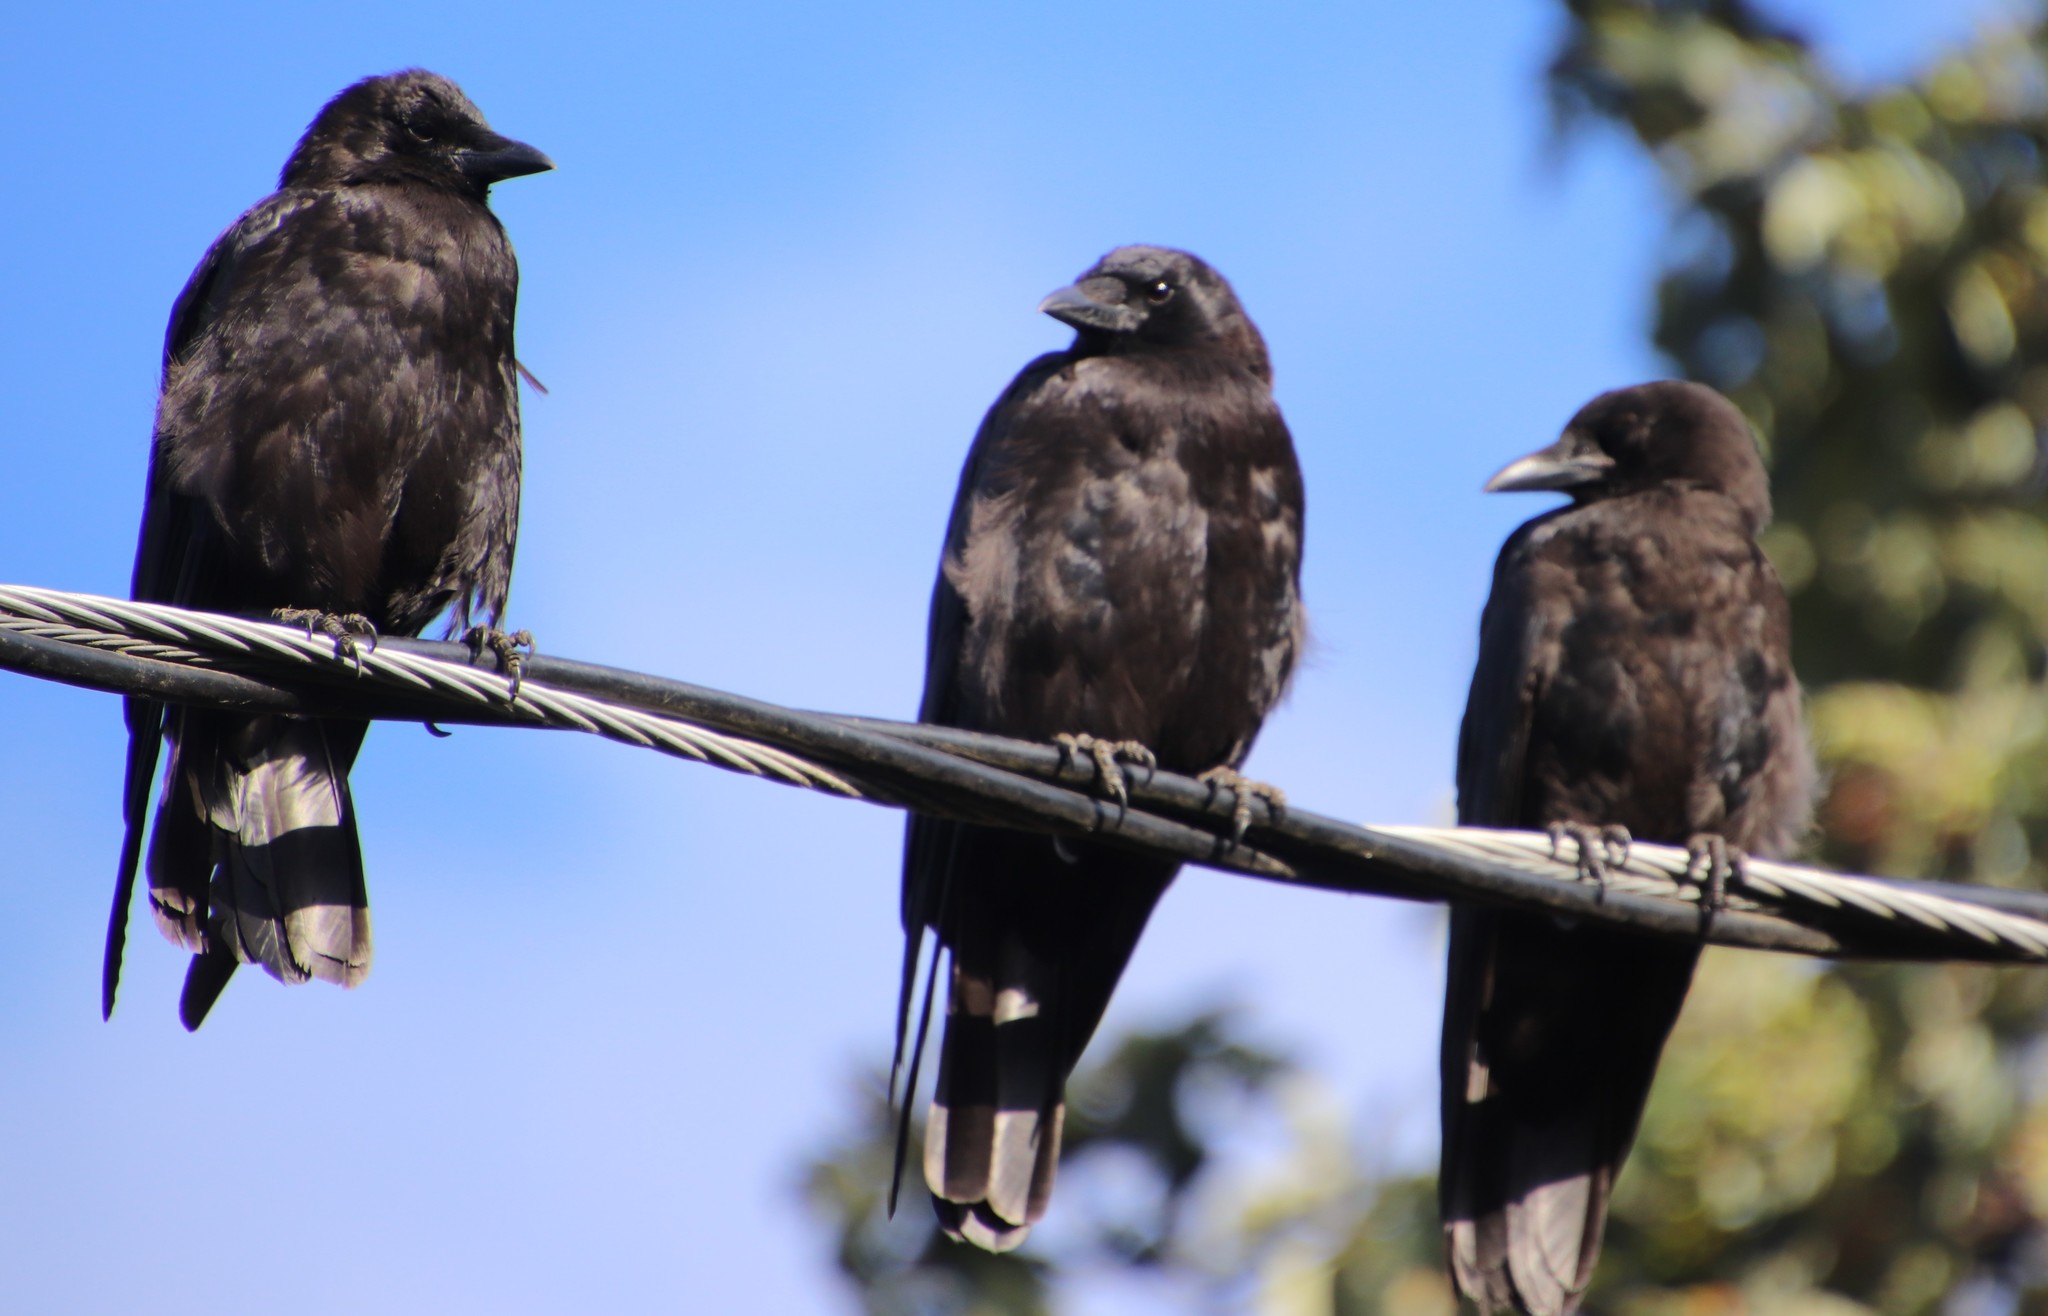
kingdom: Animalia
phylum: Chordata
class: Aves
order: Passeriformes
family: Corvidae
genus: Corvus
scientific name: Corvus brachyrhynchos
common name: American crow
